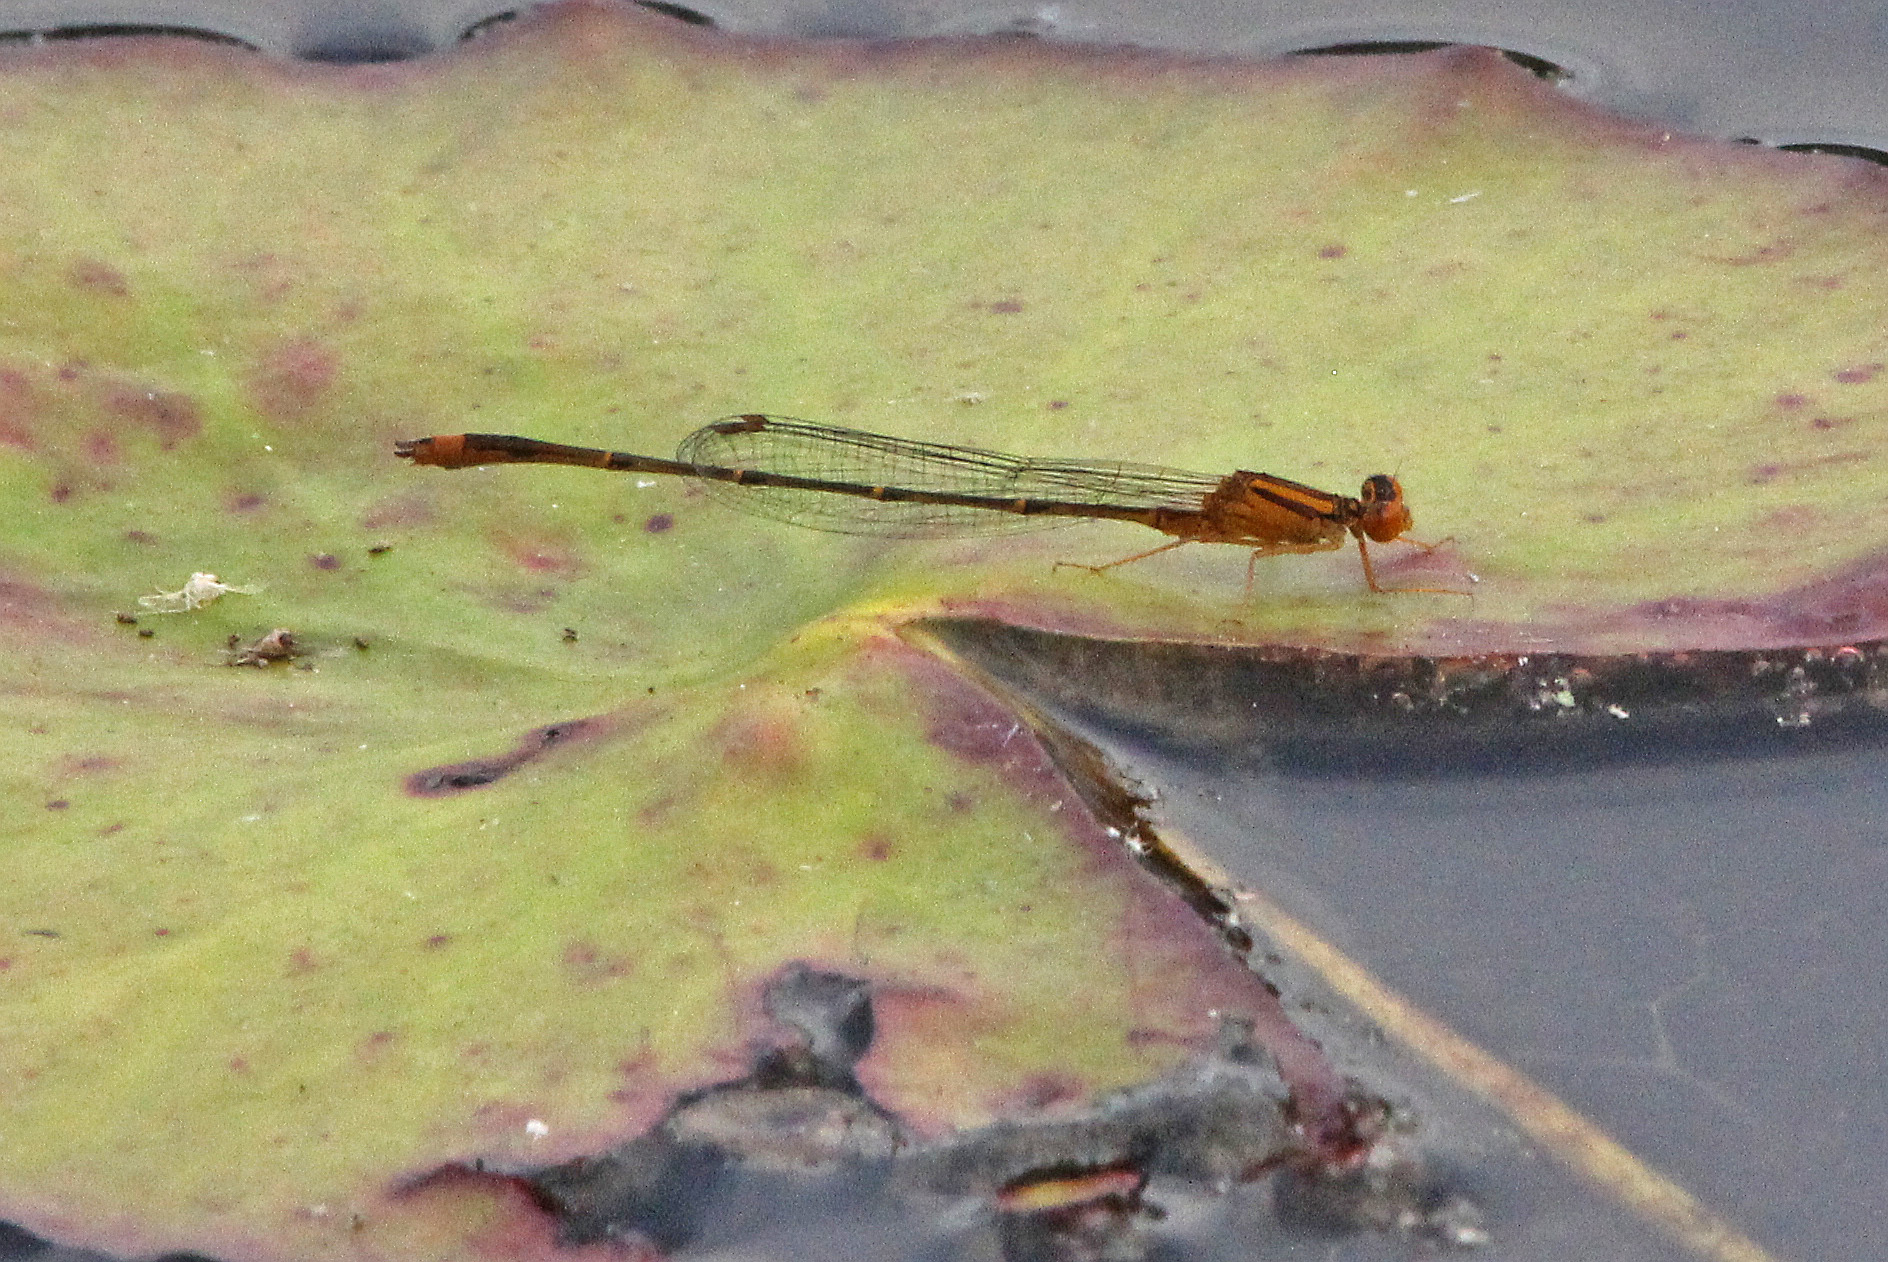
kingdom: Animalia
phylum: Arthropoda
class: Insecta
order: Odonata
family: Coenagrionidae
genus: Enallagma
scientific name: Enallagma signatum
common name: Orange bluet
